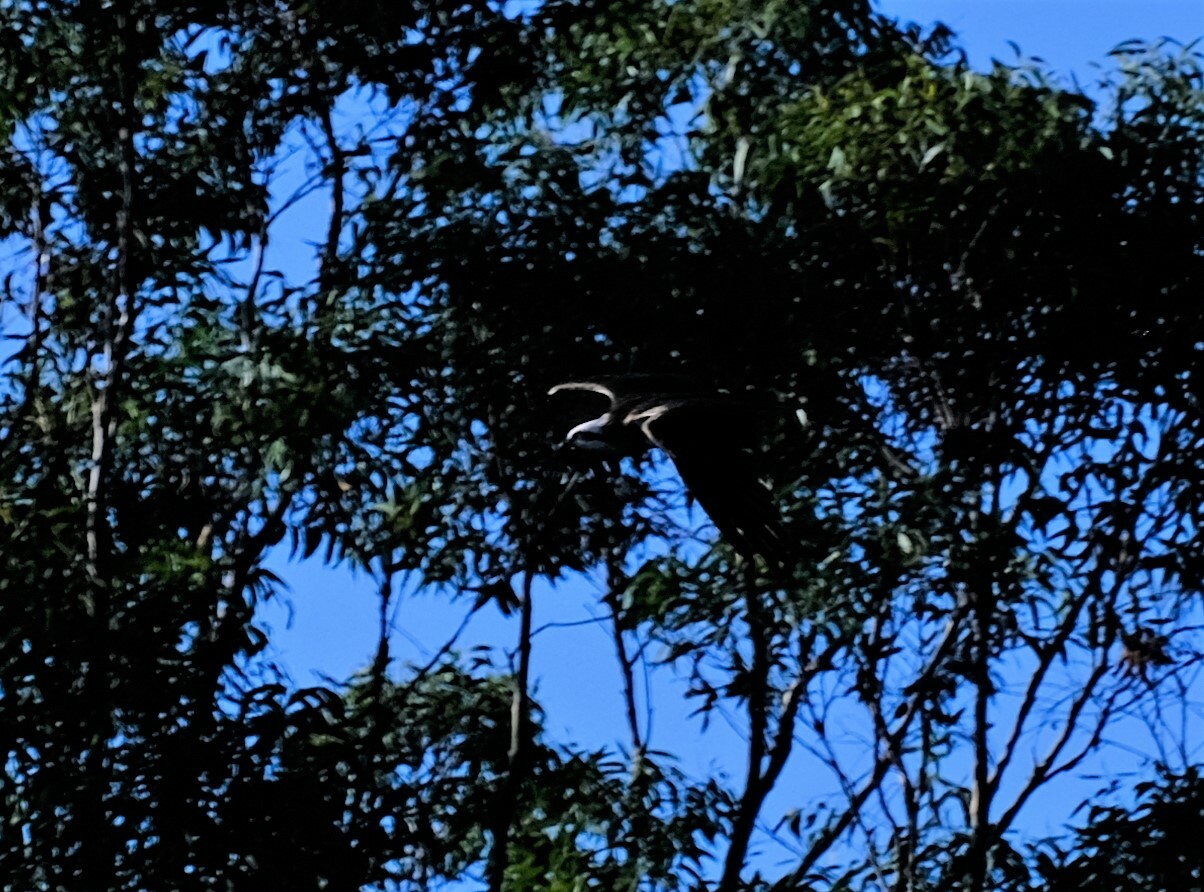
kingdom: Animalia
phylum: Chordata
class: Aves
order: Accipitriformes
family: Pandionidae
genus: Pandion
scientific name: Pandion cristatus
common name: Eastern osprey
